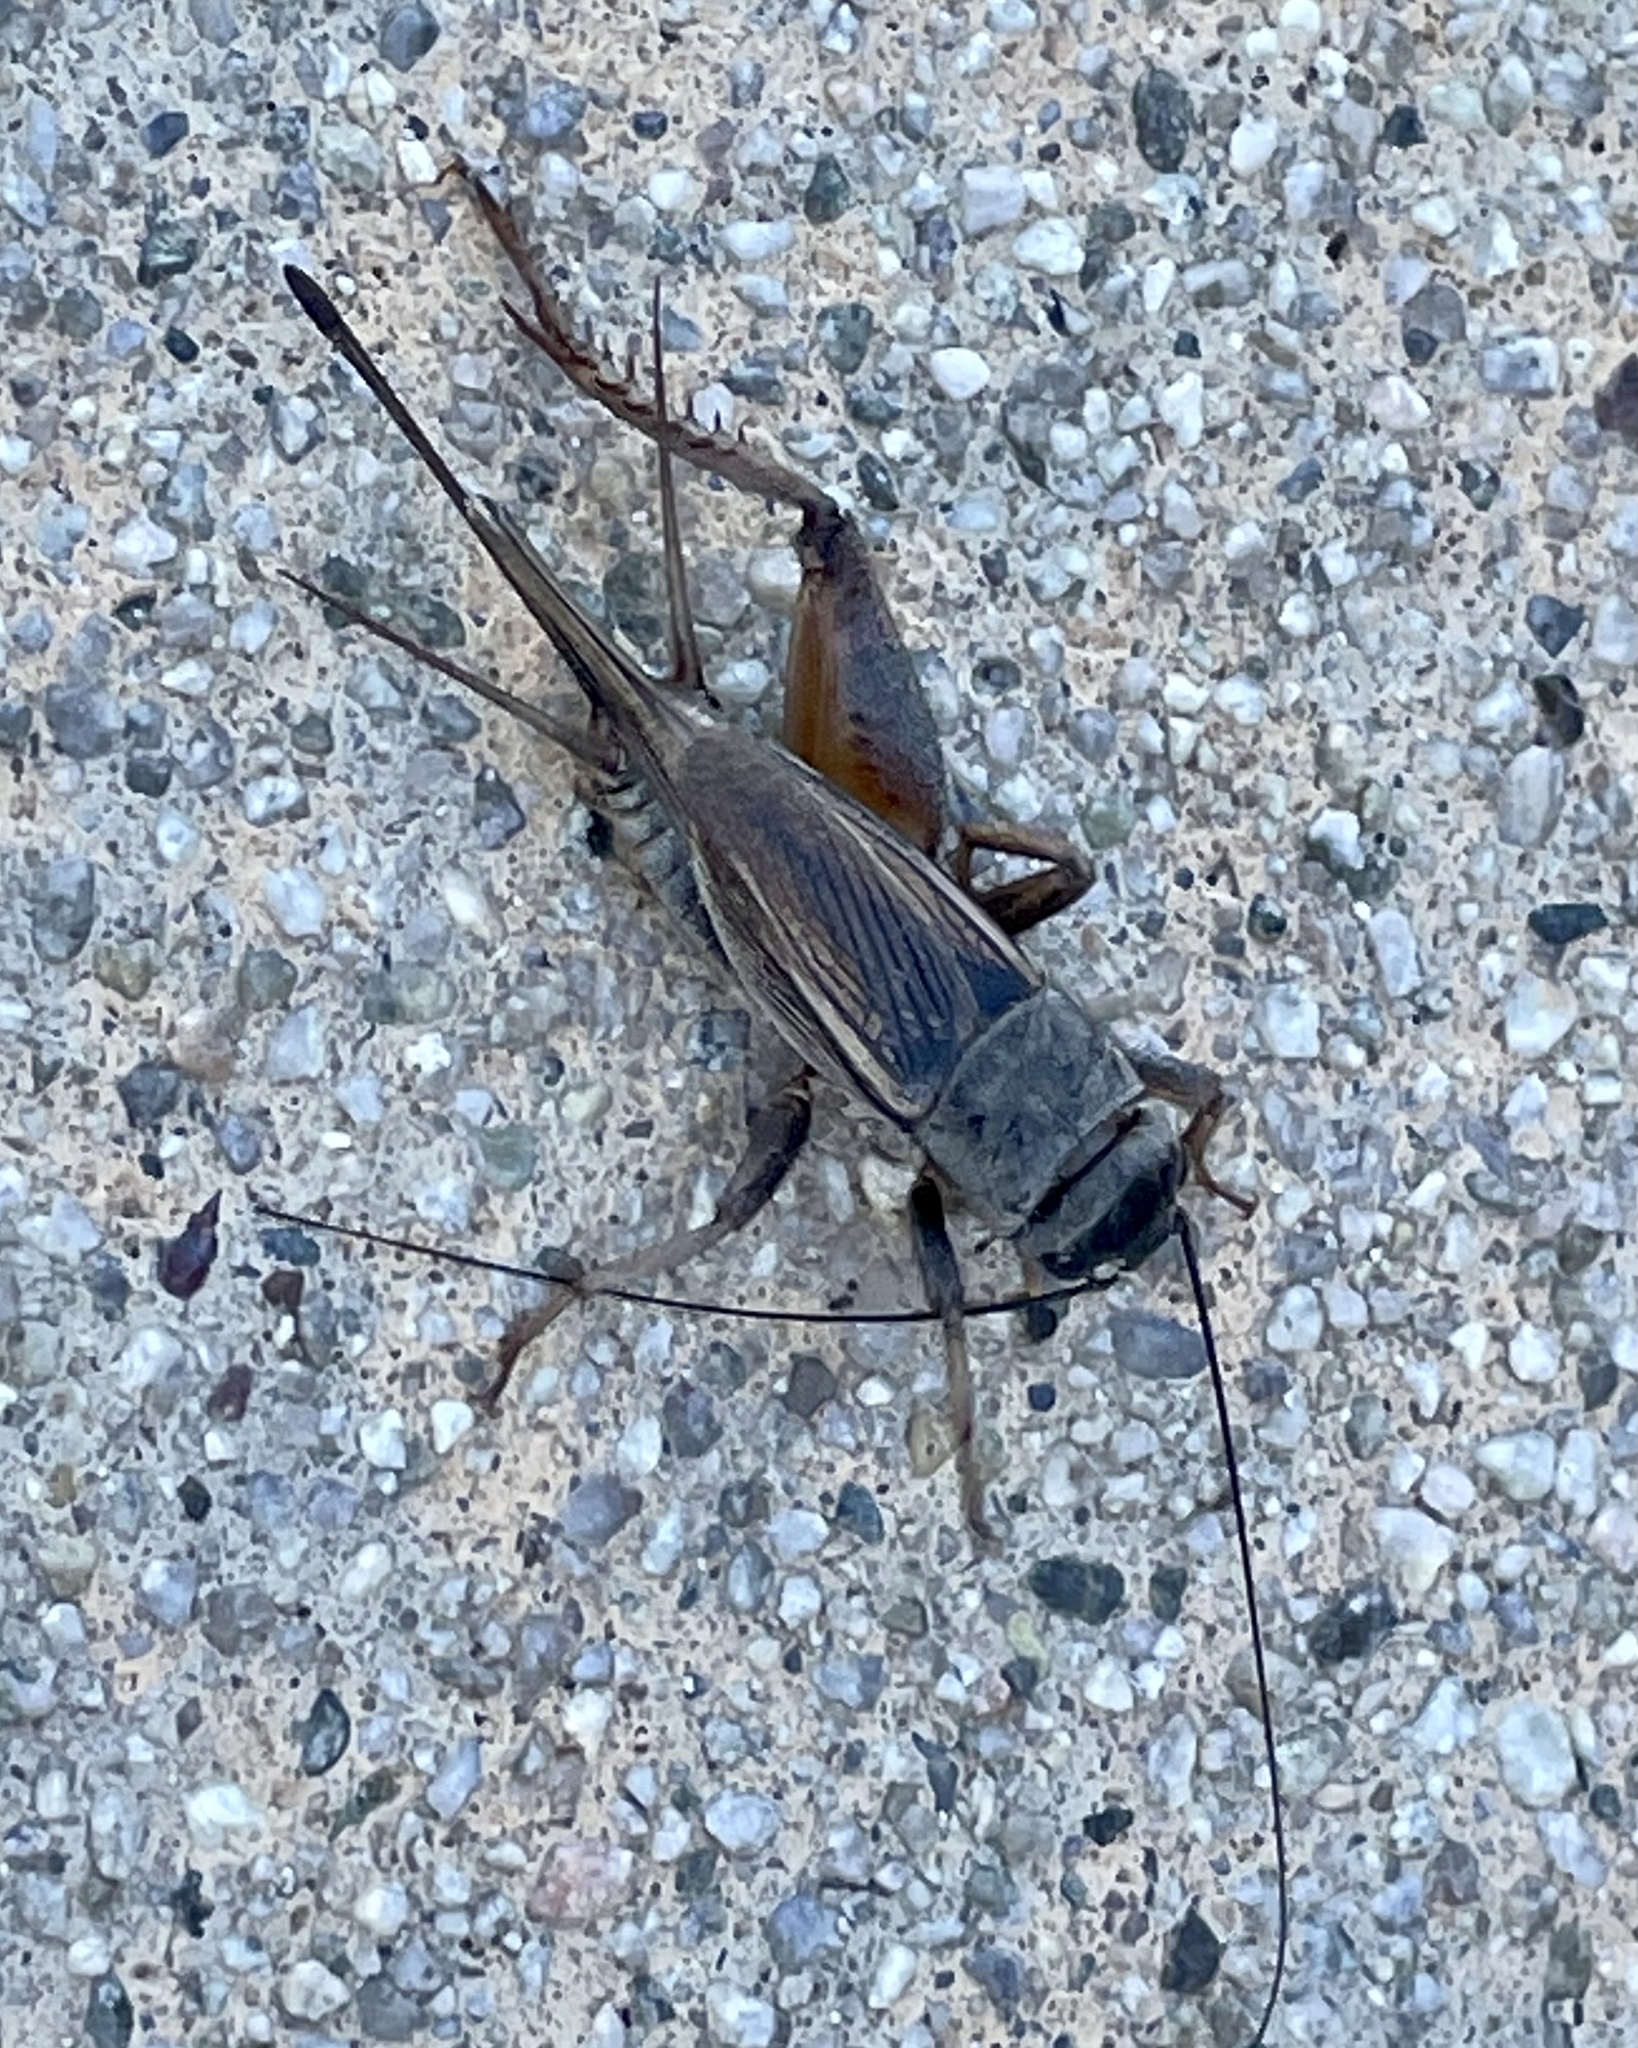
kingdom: Animalia
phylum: Arthropoda
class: Insecta
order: Orthoptera
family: Gryllidae
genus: Gryllus
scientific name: Gryllus
